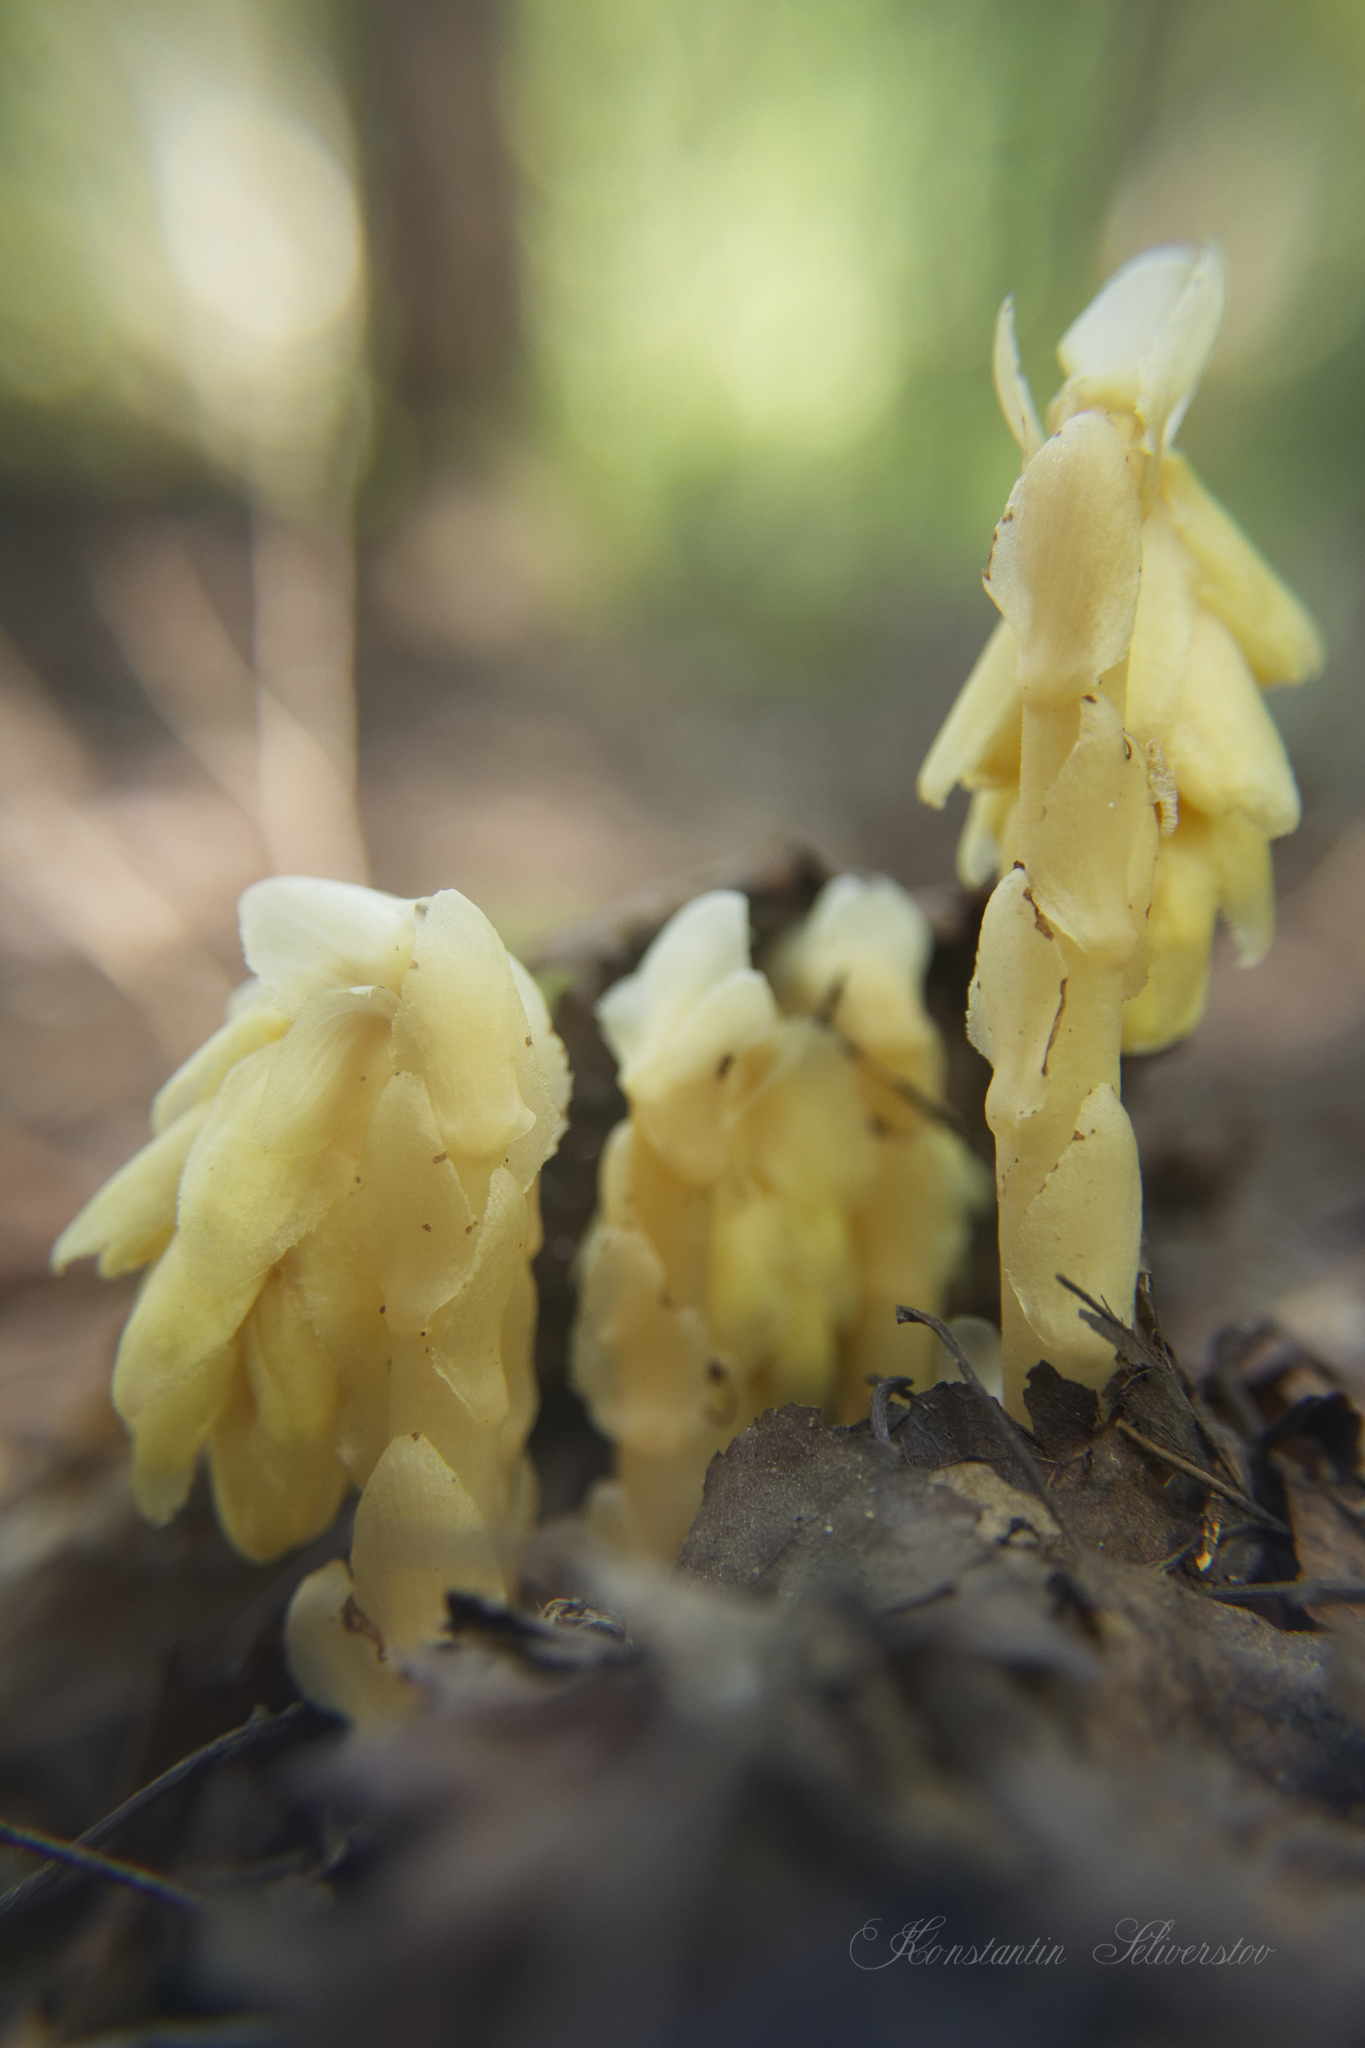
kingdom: Plantae
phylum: Tracheophyta
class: Magnoliopsida
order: Ericales
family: Ericaceae
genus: Hypopitys
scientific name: Hypopitys monotropa
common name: Yellow bird's-nest
